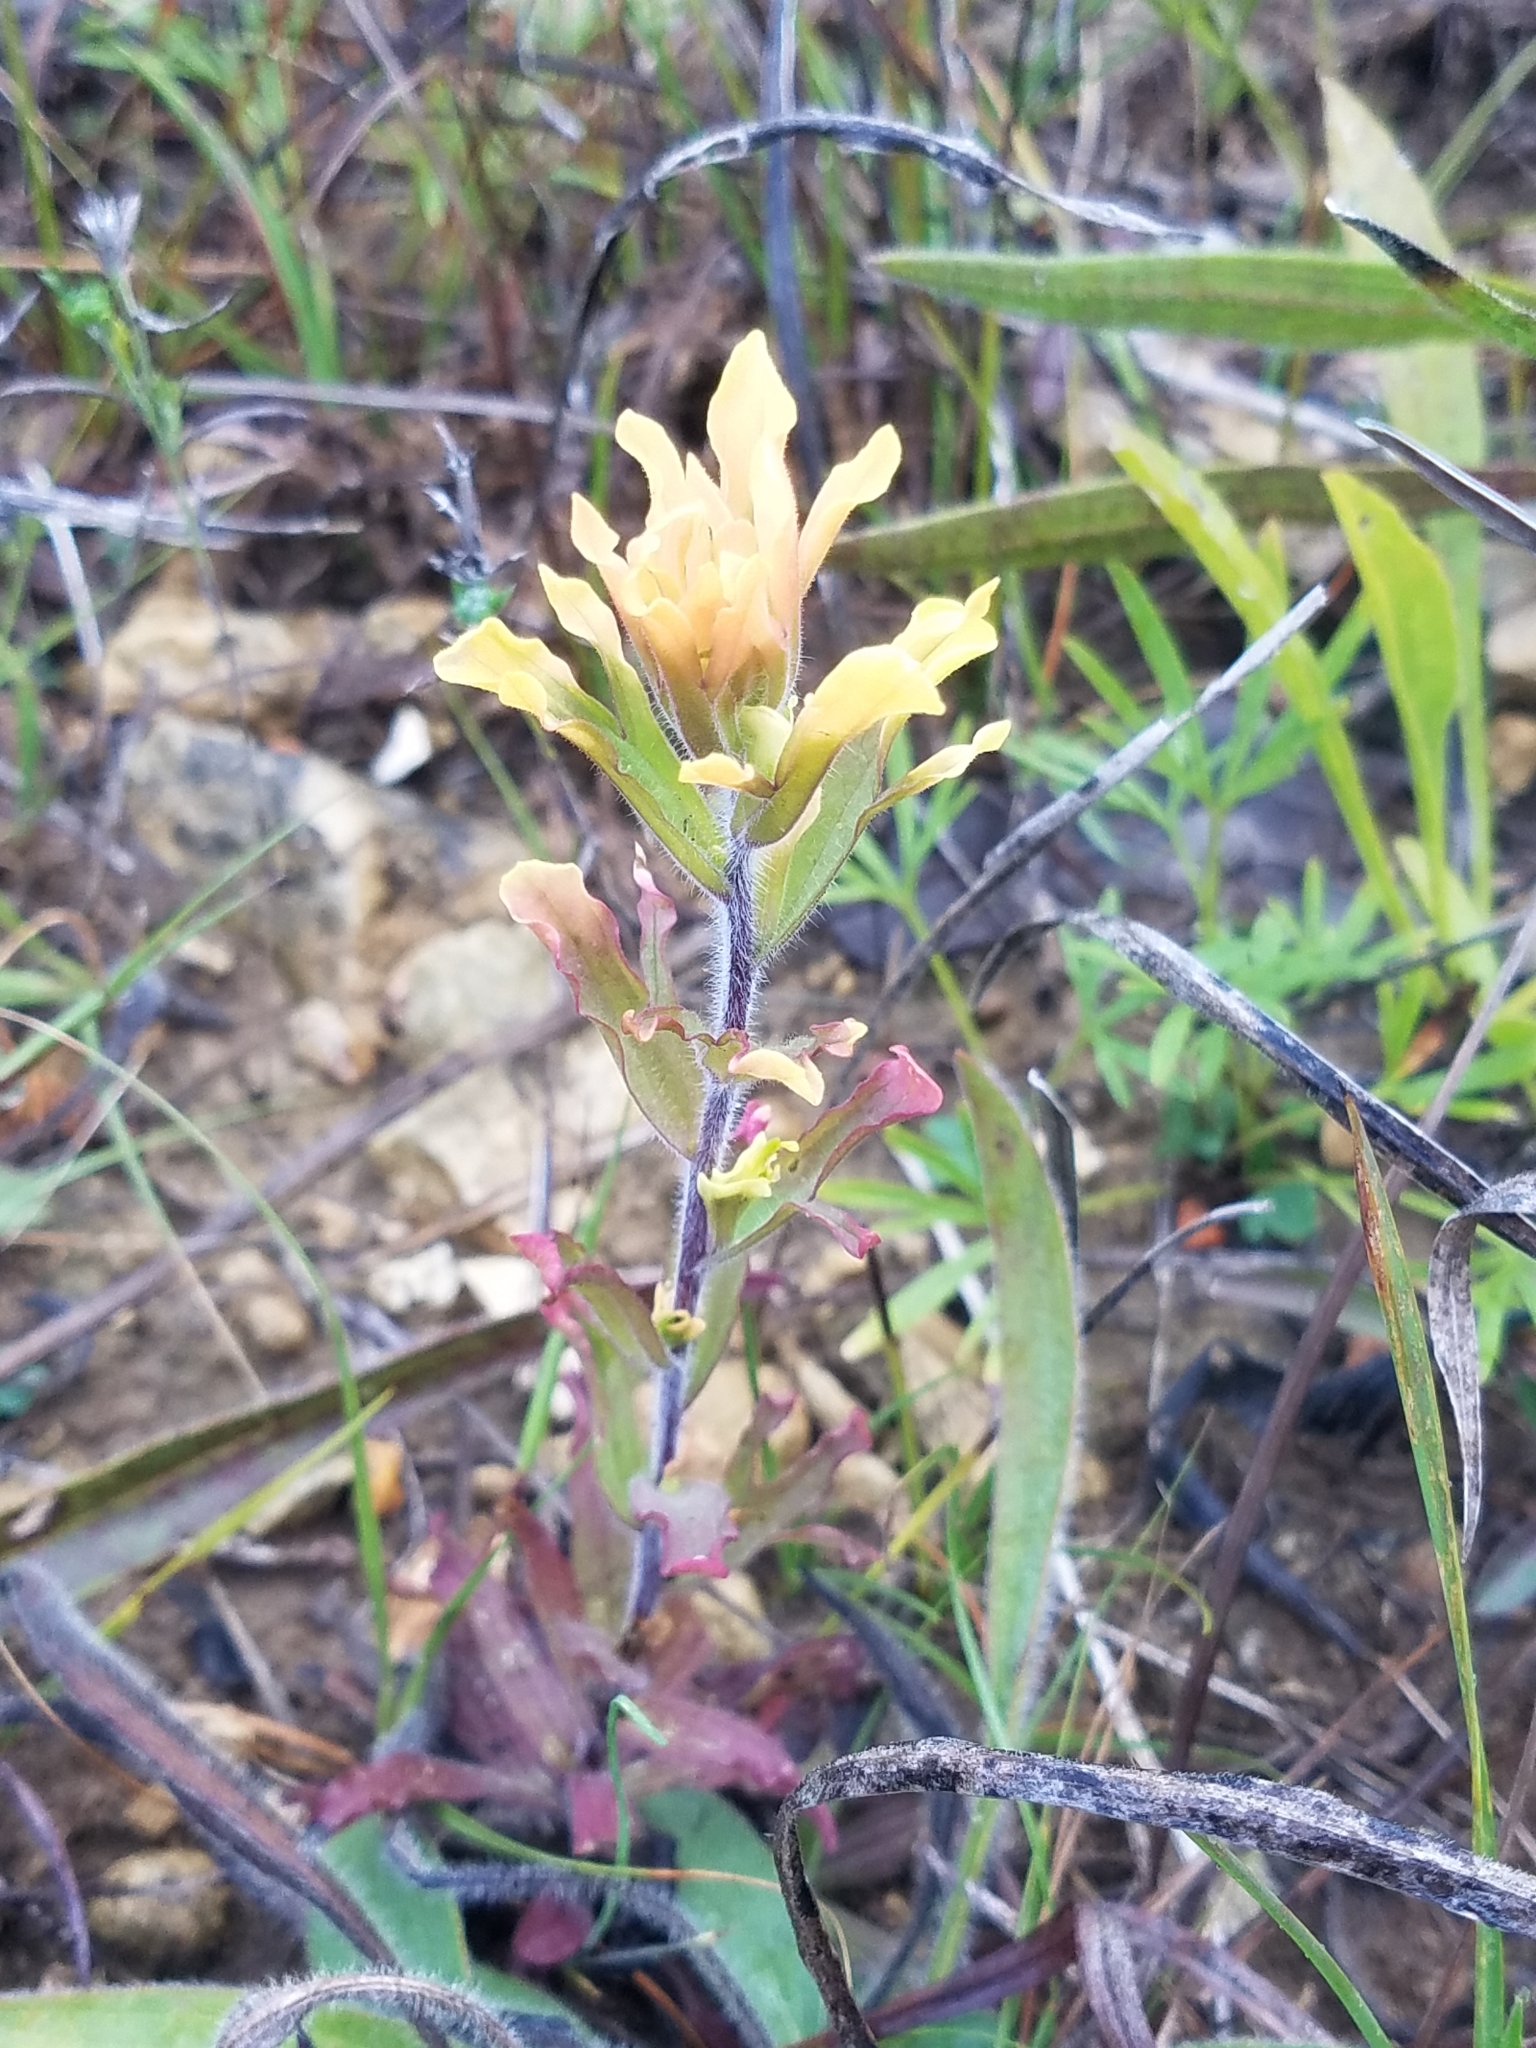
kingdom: Plantae
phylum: Tracheophyta
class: Magnoliopsida
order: Lamiales
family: Orobanchaceae
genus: Castilleja
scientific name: Castilleja coccinea
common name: Scarlet paintbrush
